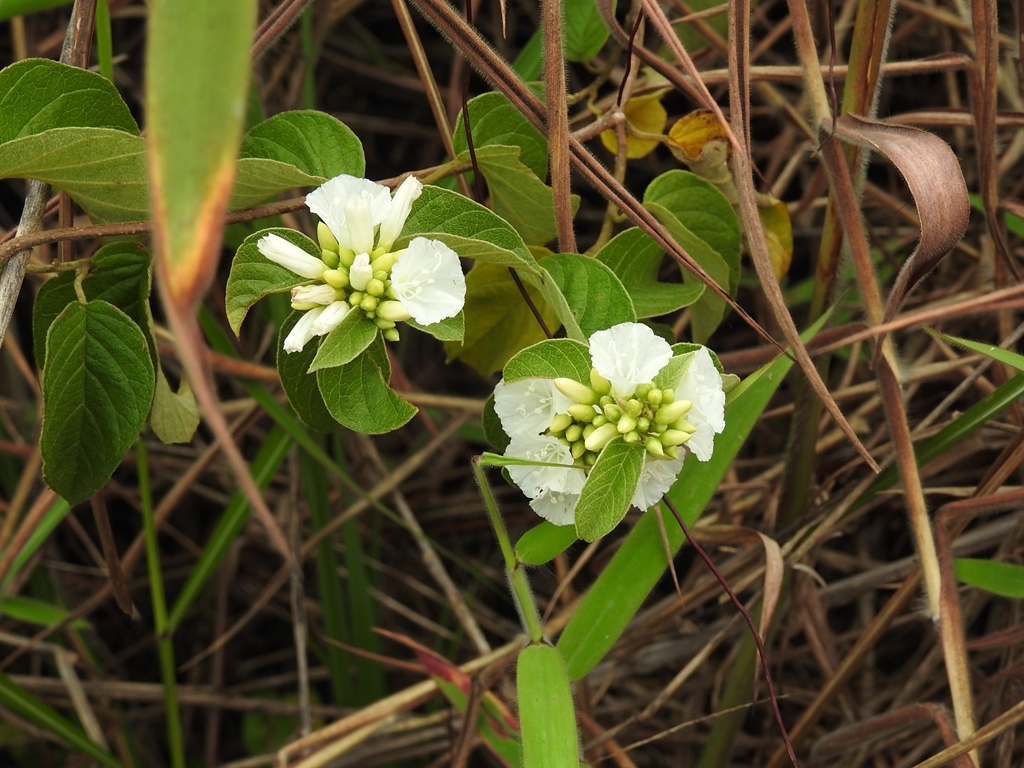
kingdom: Plantae
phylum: Tracheophyta
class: Magnoliopsida
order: Solanales
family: Convolvulaceae
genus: Jacquemontia
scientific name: Jacquemontia nodiflora
